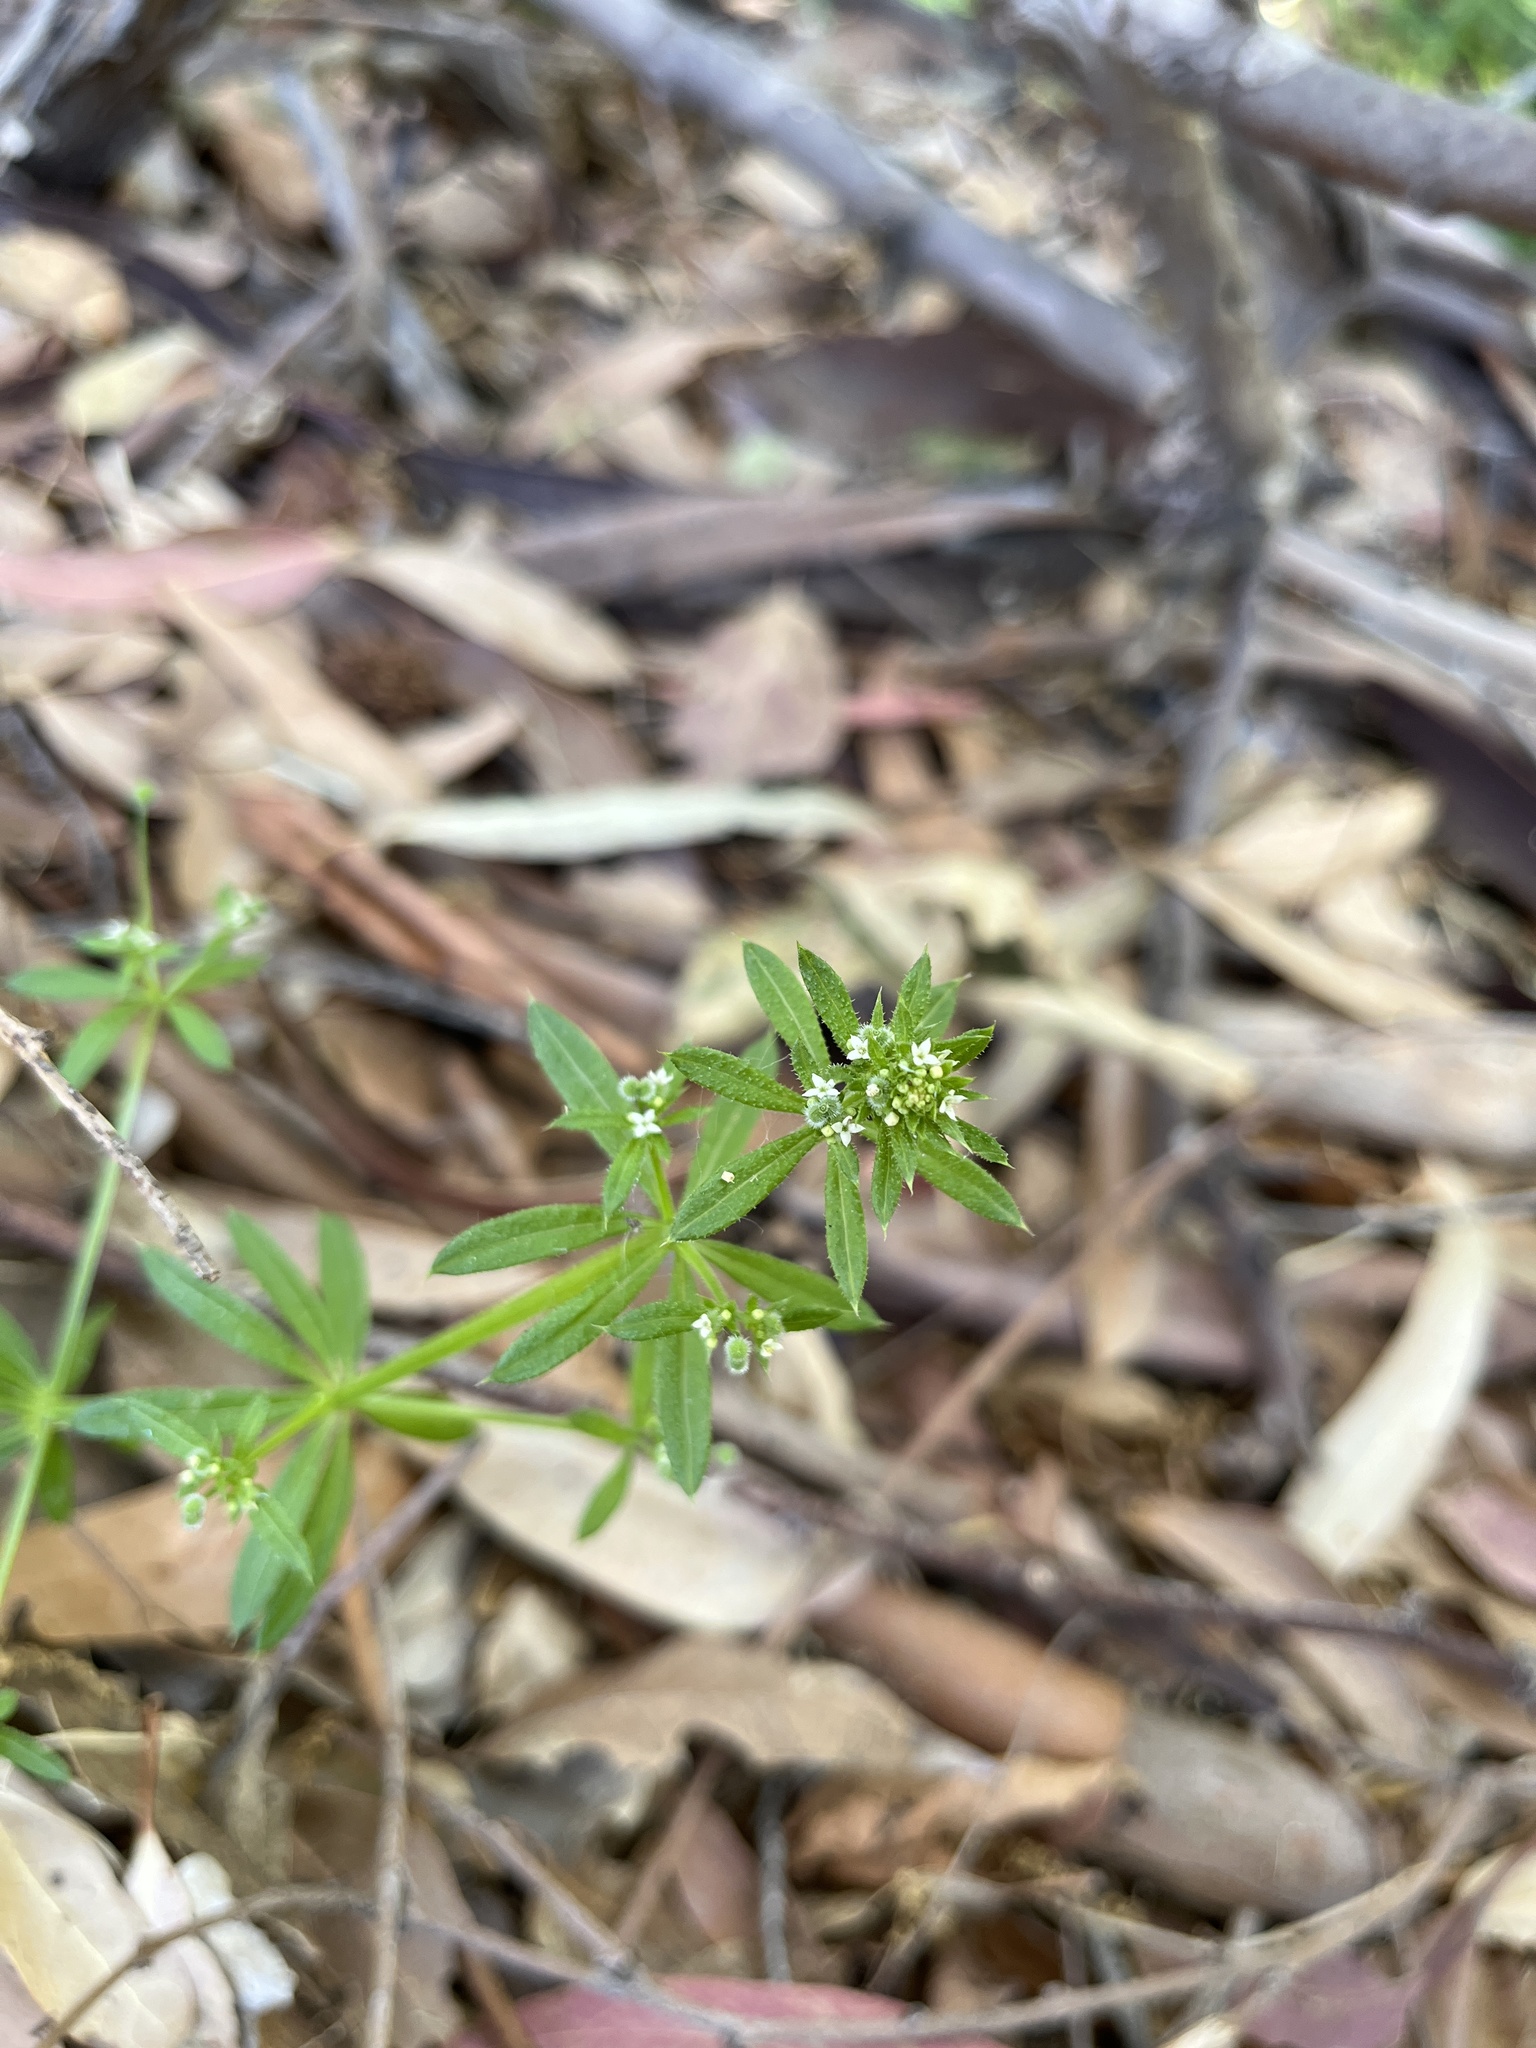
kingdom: Plantae
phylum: Tracheophyta
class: Magnoliopsida
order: Gentianales
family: Rubiaceae
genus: Galium
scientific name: Galium aparine
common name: Cleavers
